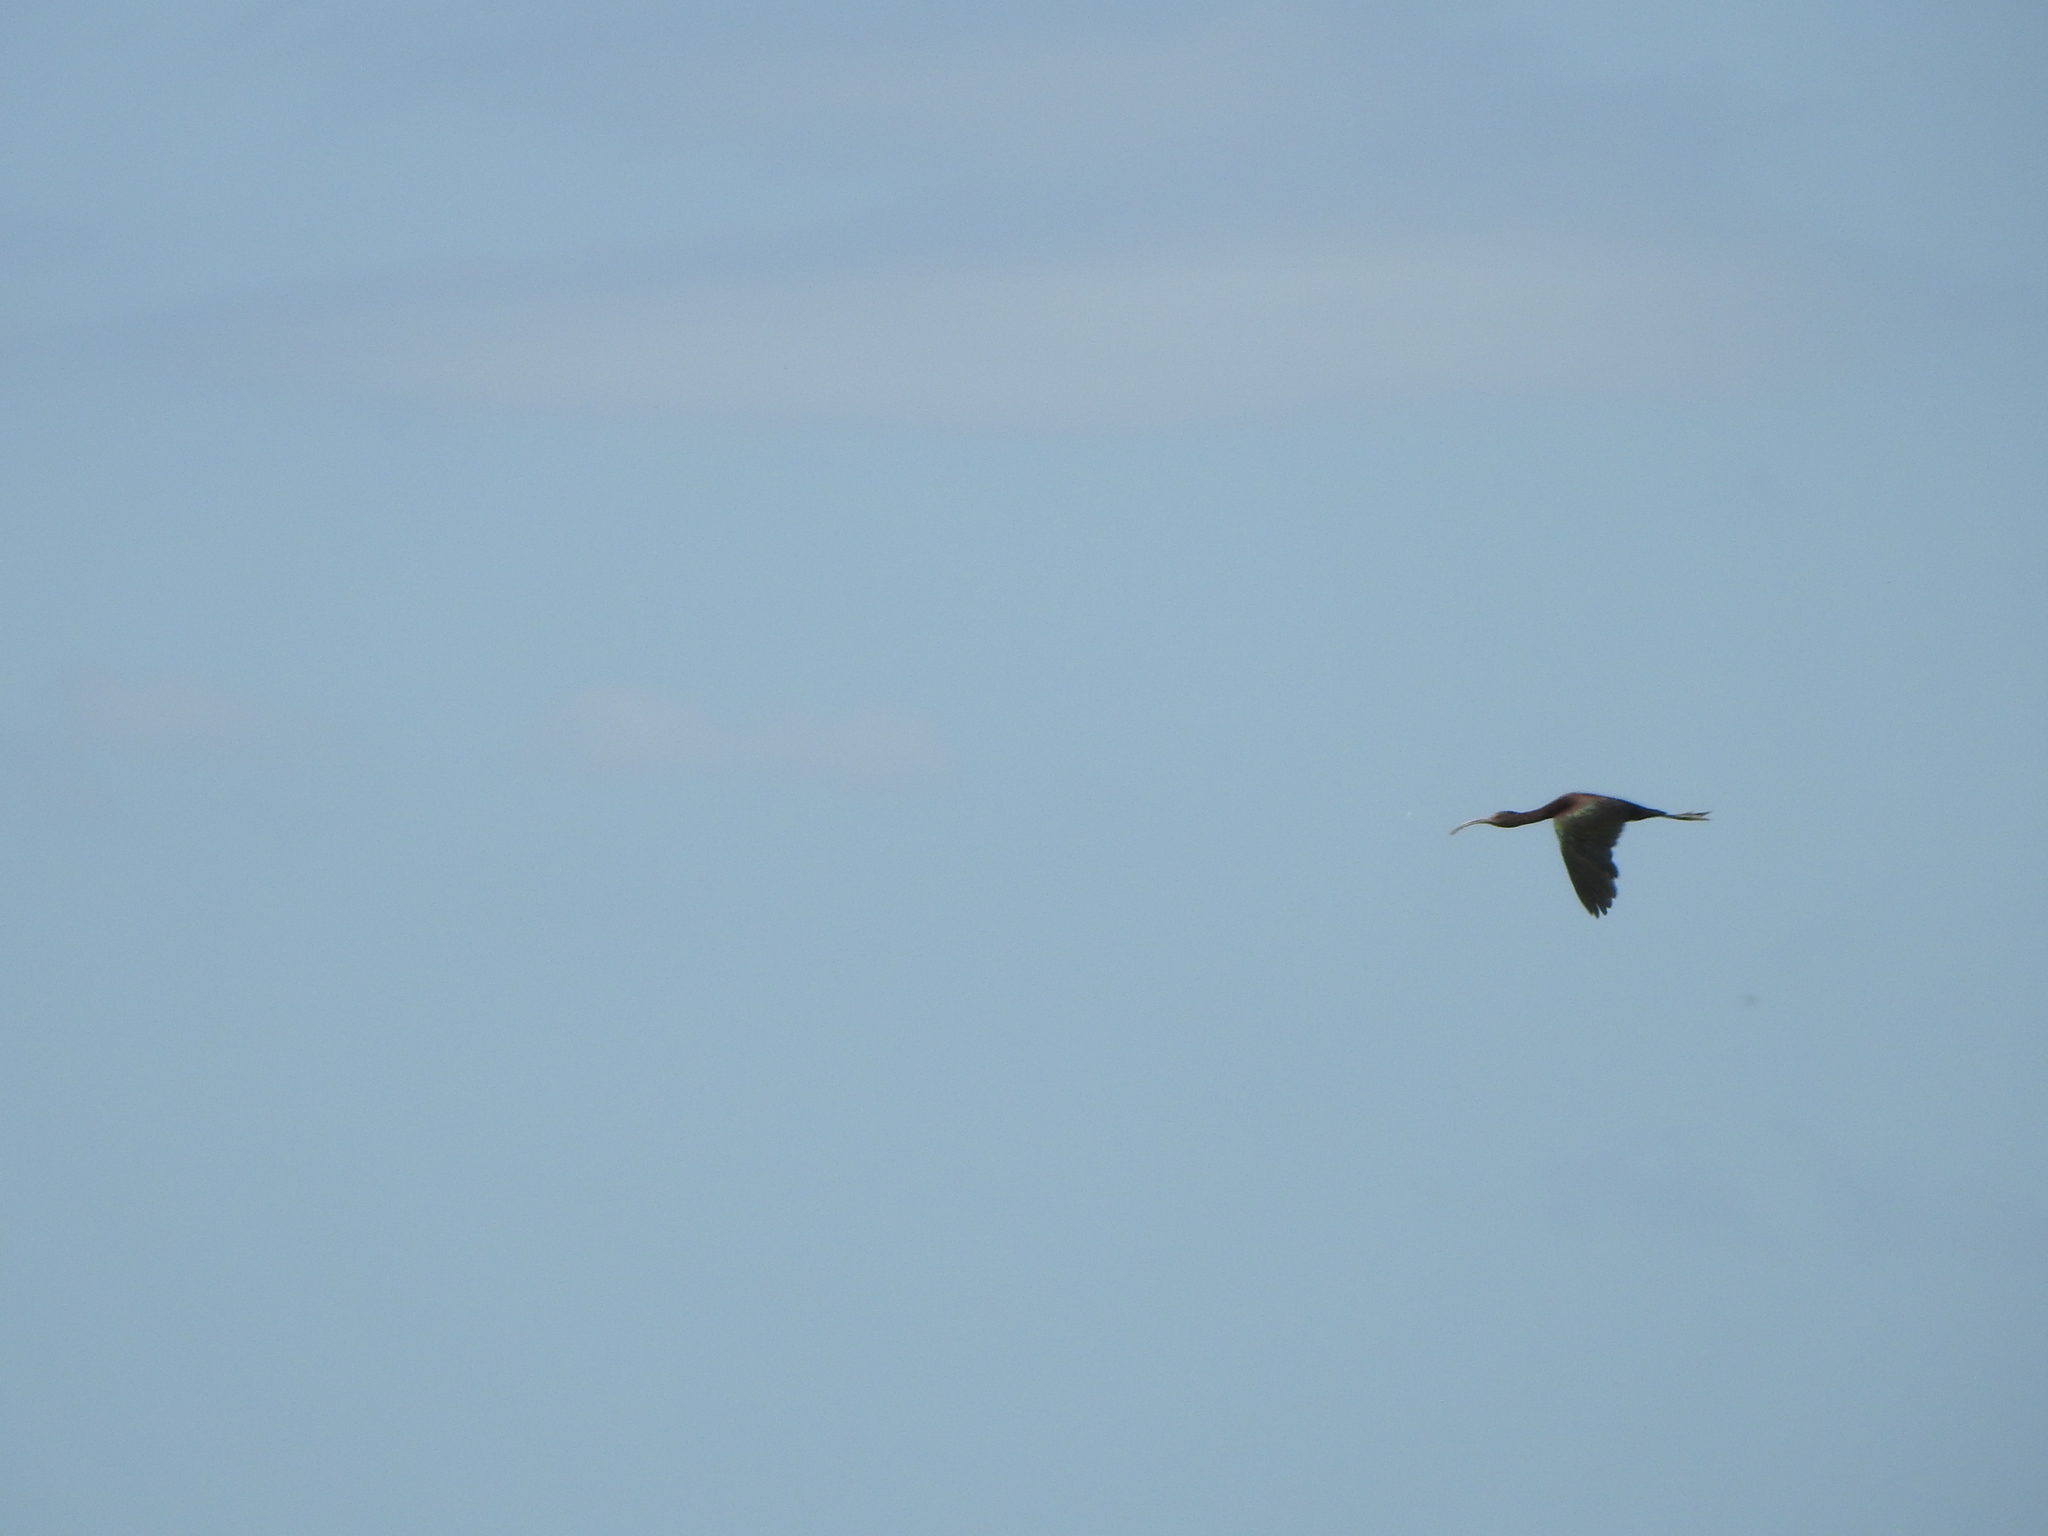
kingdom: Animalia
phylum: Chordata
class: Aves
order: Pelecaniformes
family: Threskiornithidae
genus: Plegadis
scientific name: Plegadis chihi
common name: White-faced ibis
